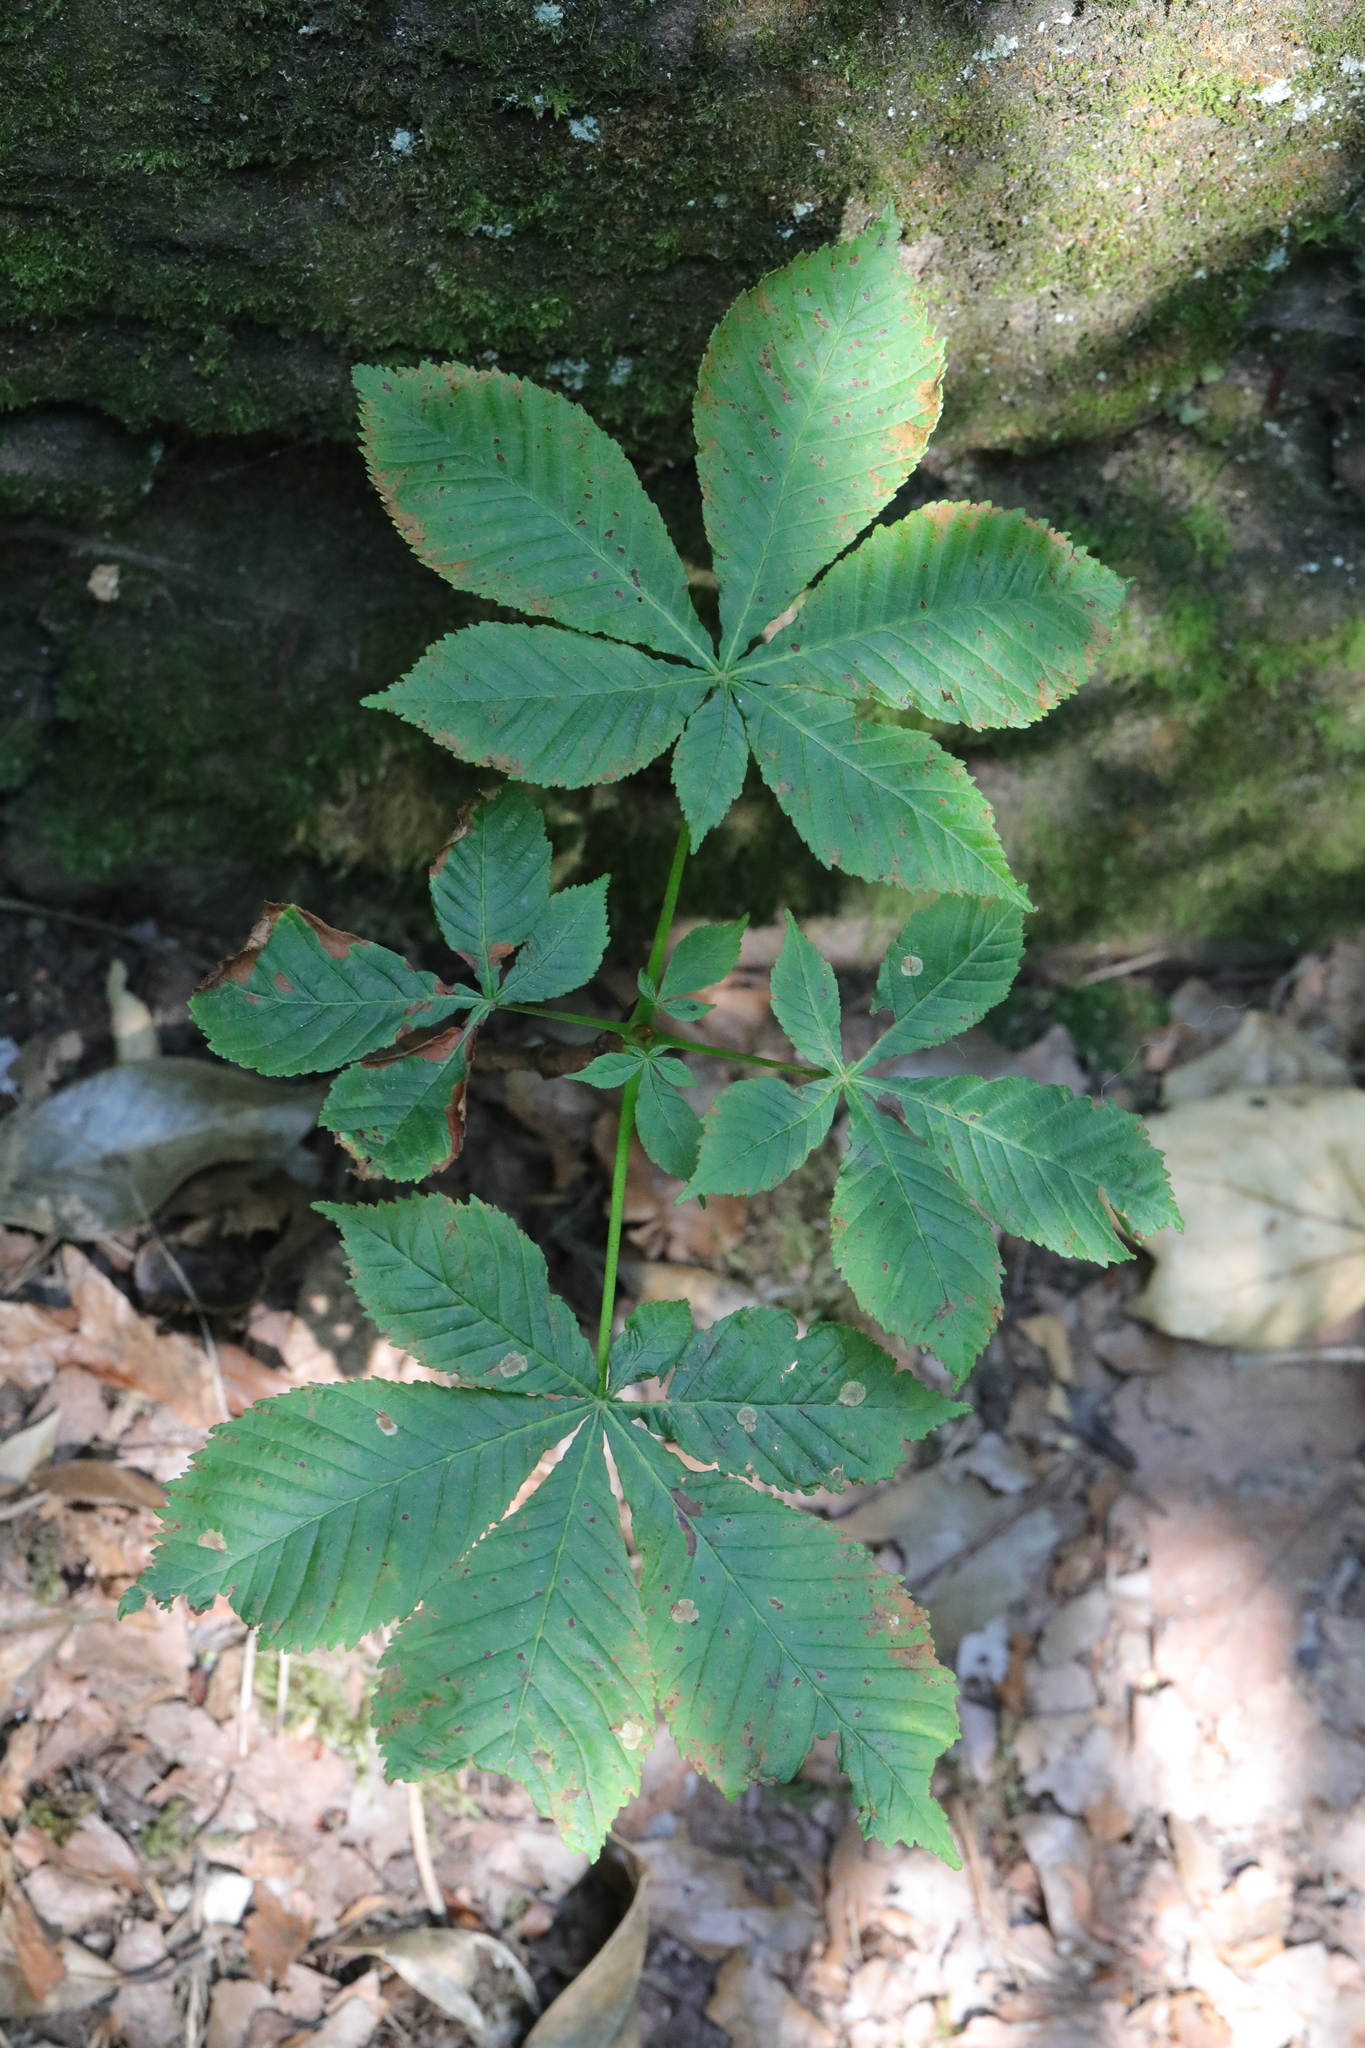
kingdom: Plantae
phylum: Tracheophyta
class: Magnoliopsida
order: Sapindales
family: Sapindaceae
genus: Aesculus
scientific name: Aesculus hippocastanum
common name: Horse-chestnut
